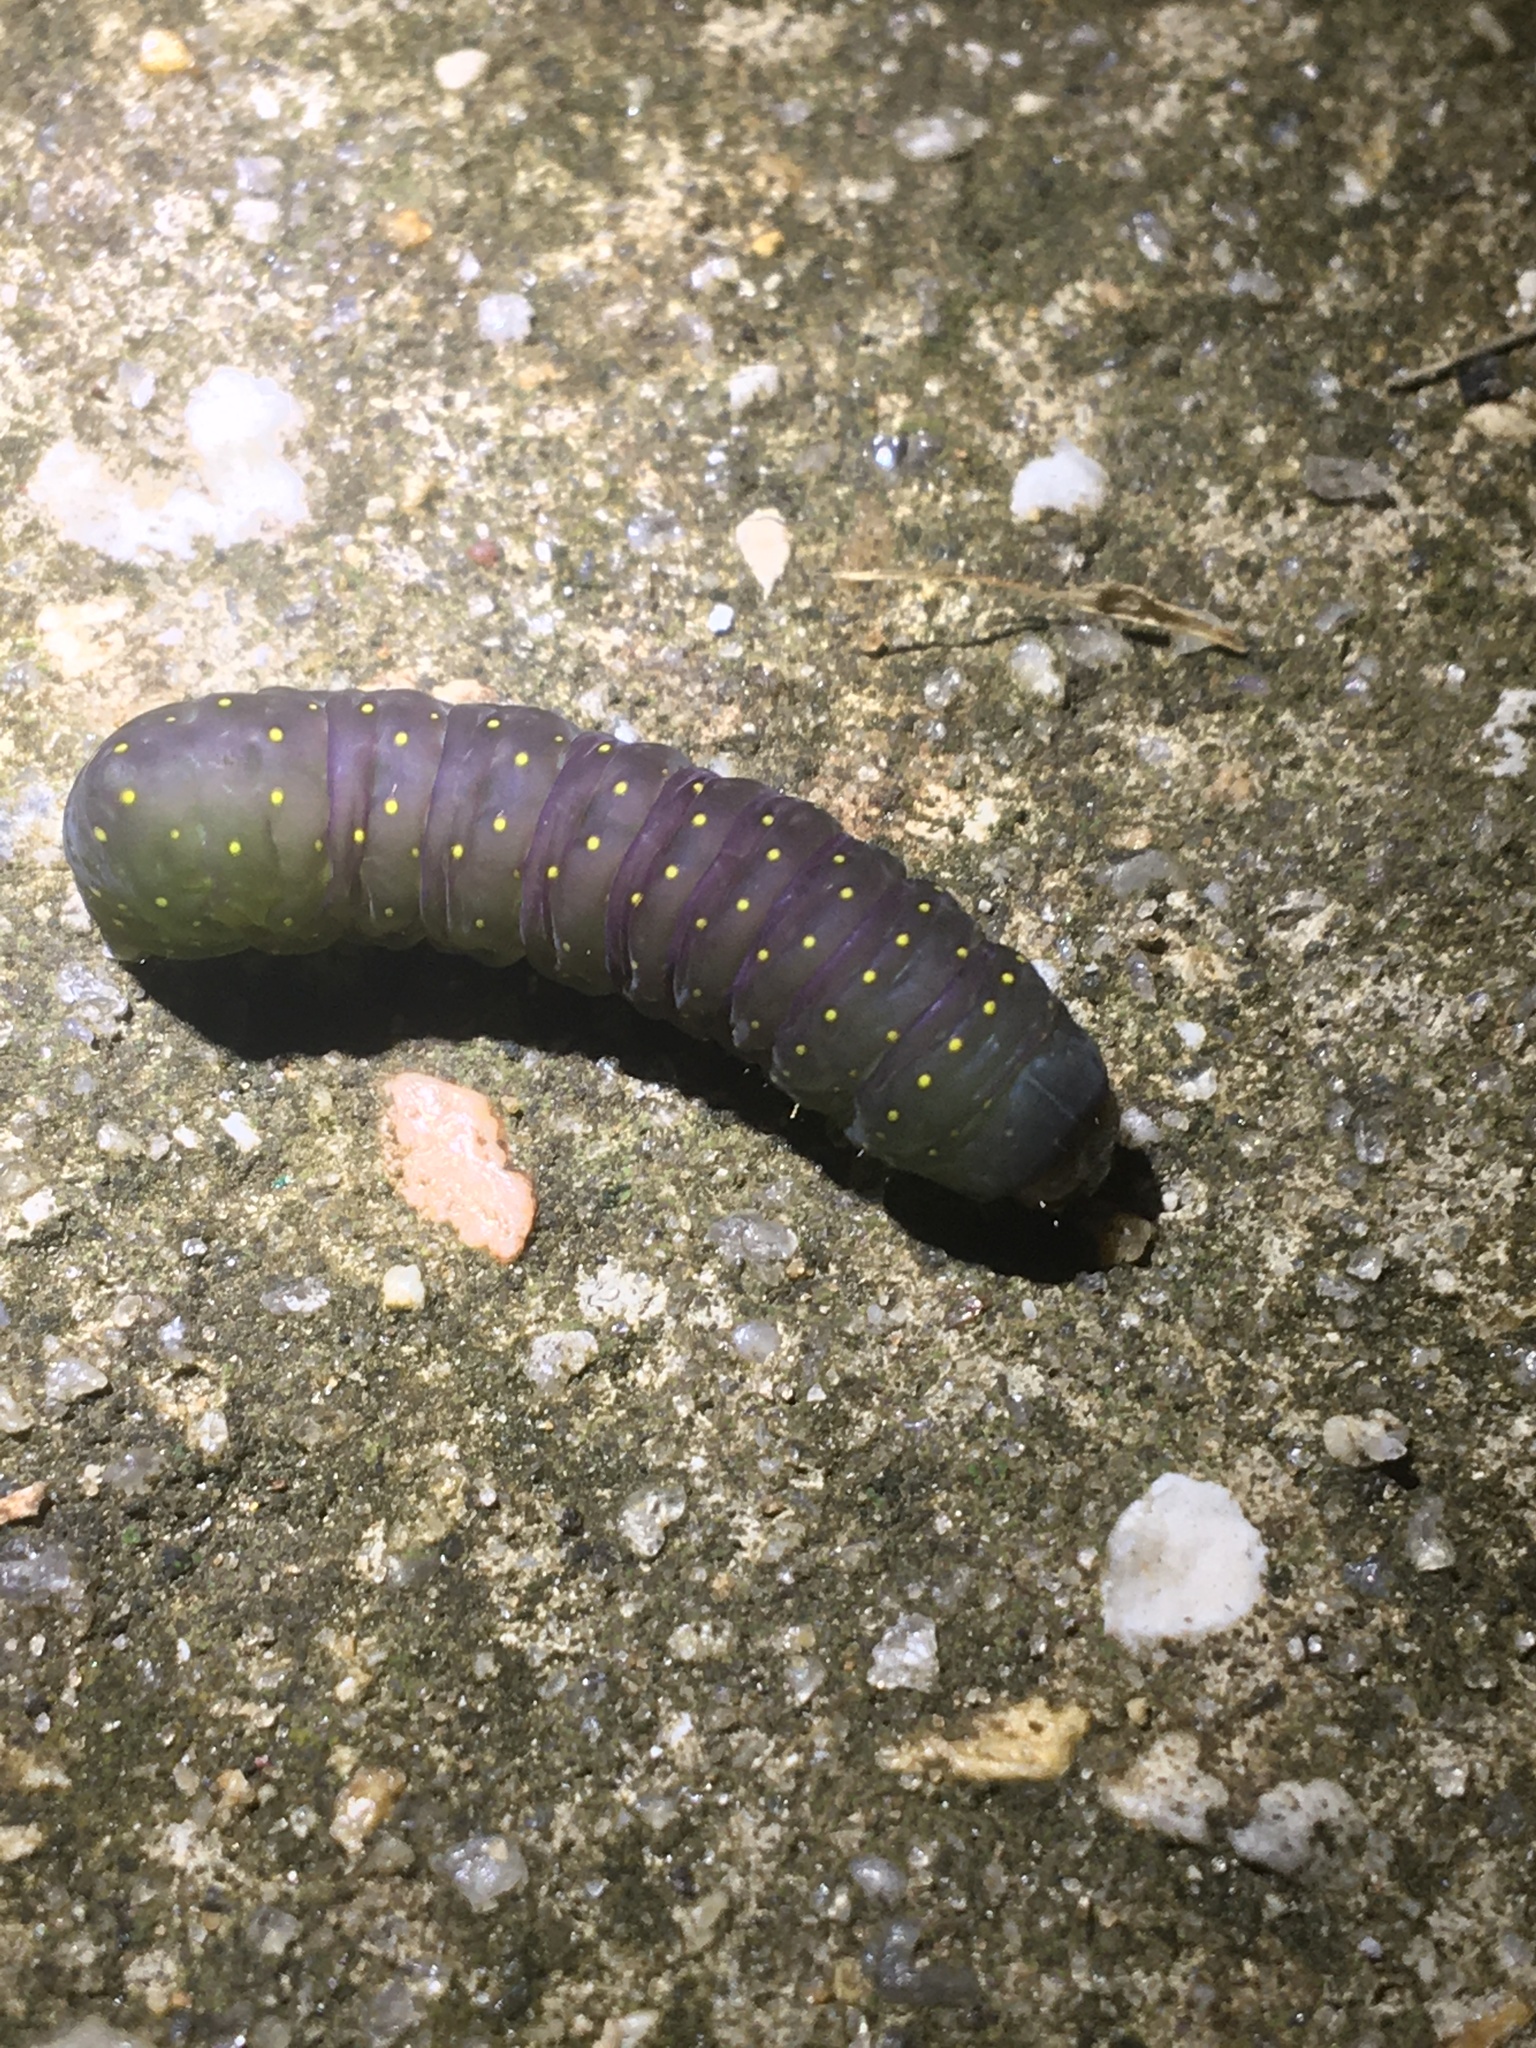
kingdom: Animalia
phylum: Arthropoda
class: Insecta
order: Lepidoptera
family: Noctuidae
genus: Phosphila
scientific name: Phosphila miselioides
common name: Spotted phosphila moth
